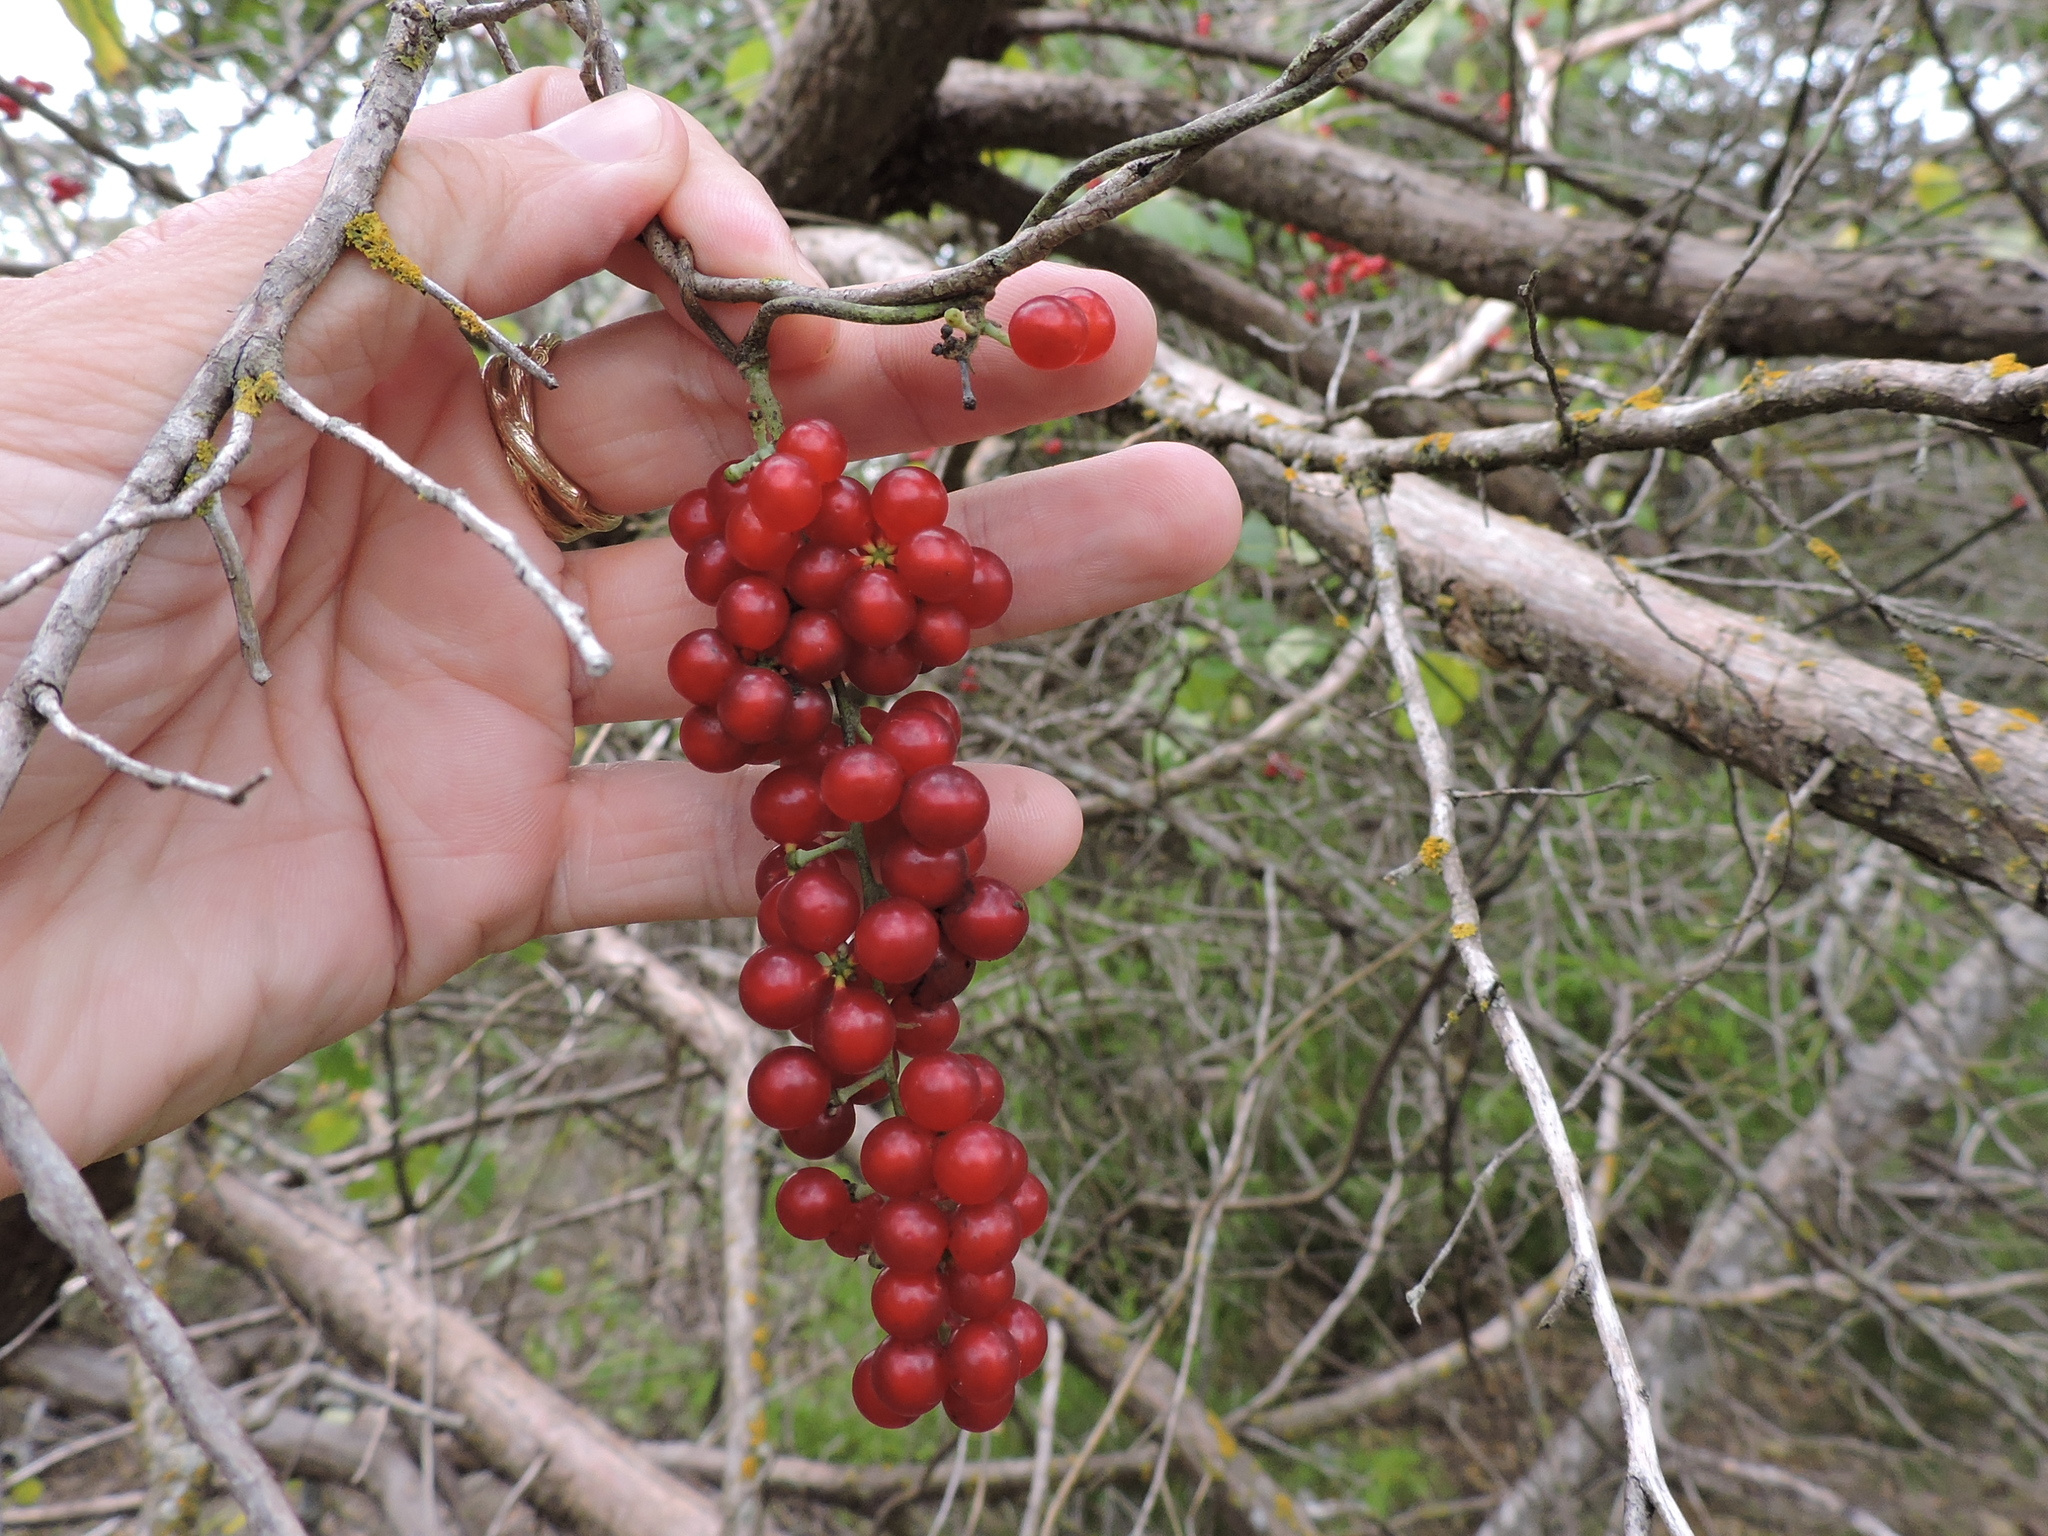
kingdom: Plantae
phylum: Tracheophyta
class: Magnoliopsida
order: Ranunculales
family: Menispermaceae
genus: Cocculus
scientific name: Cocculus carolinus
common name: Carolina moonseed
